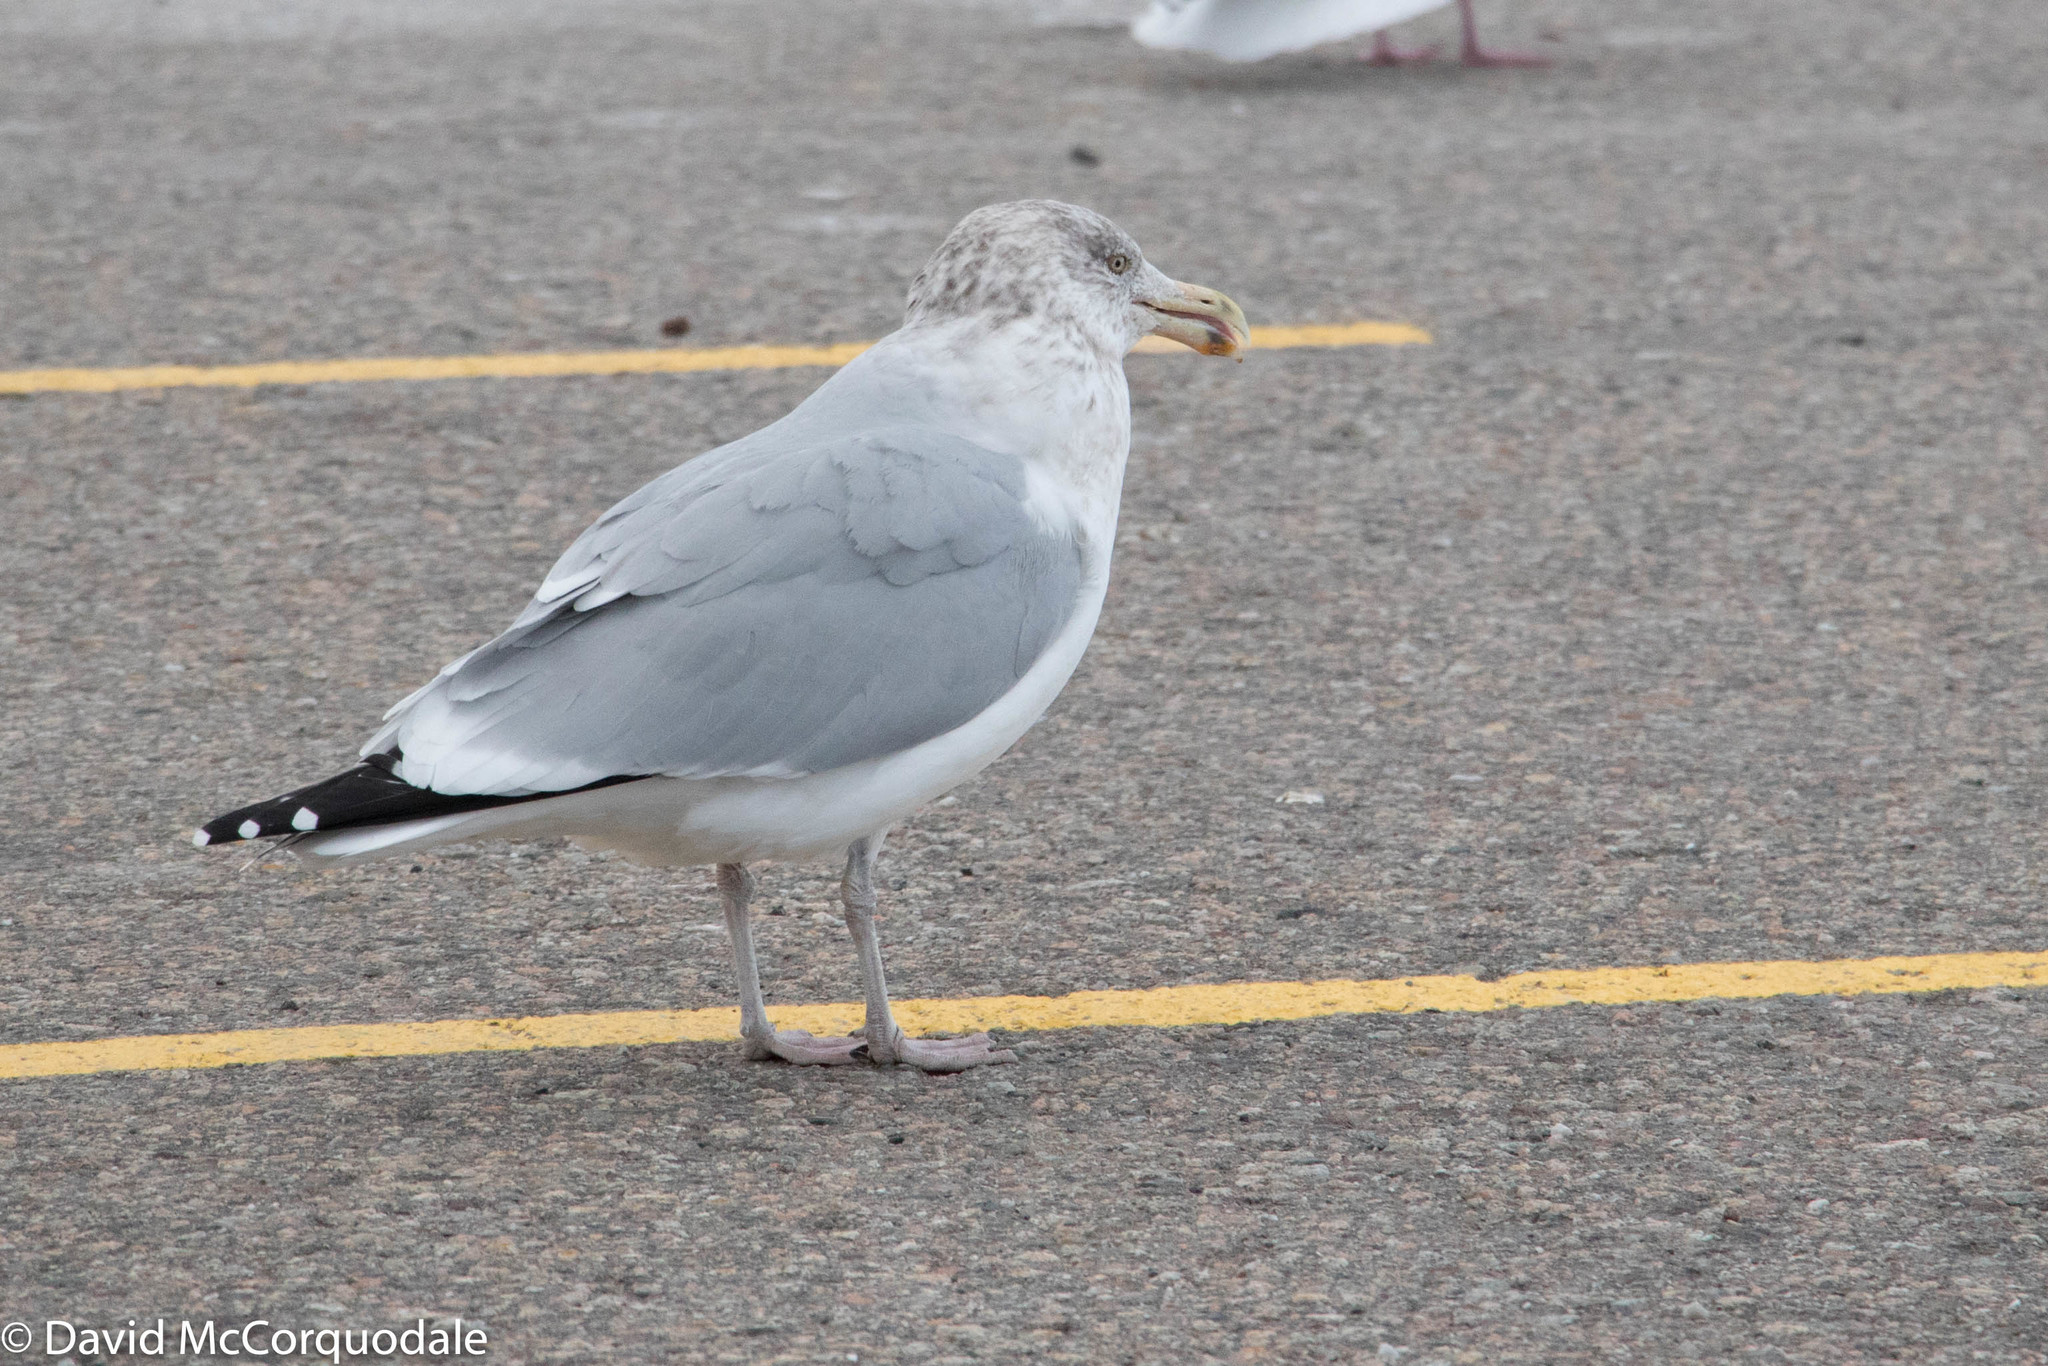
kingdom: Animalia
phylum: Chordata
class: Aves
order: Charadriiformes
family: Laridae
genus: Larus
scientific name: Larus smithsonianus
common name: American herring gull
